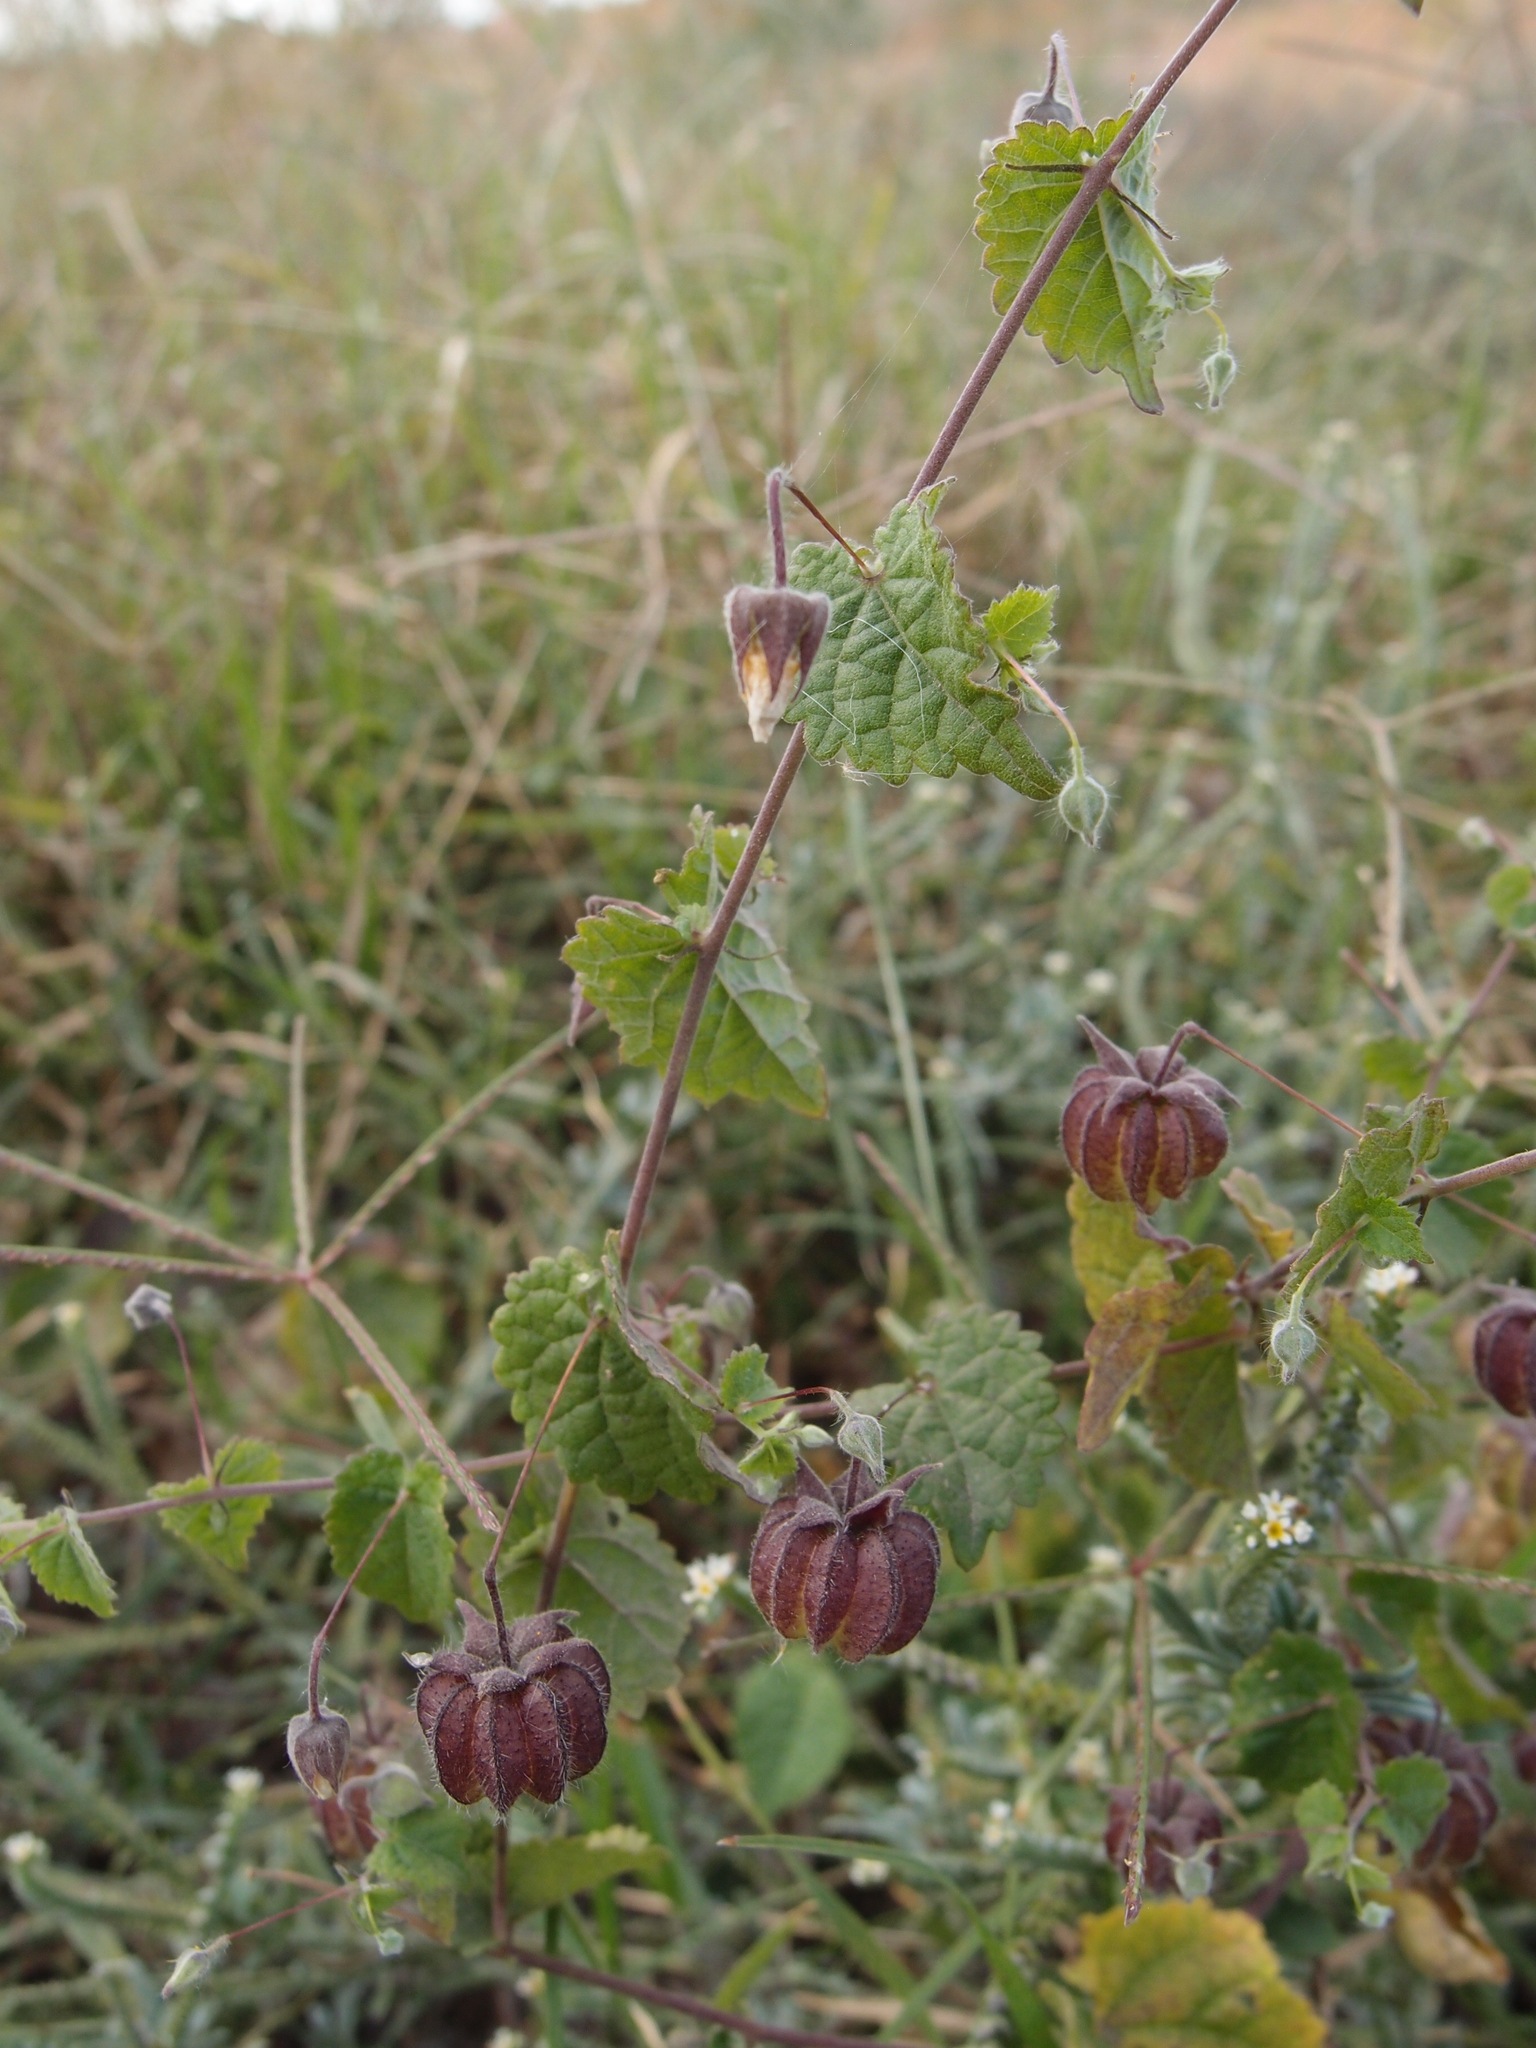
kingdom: Plantae
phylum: Tracheophyta
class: Magnoliopsida
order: Malvales
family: Malvaceae
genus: Herissantia
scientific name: Herissantia crispa
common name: Bladdermallow
